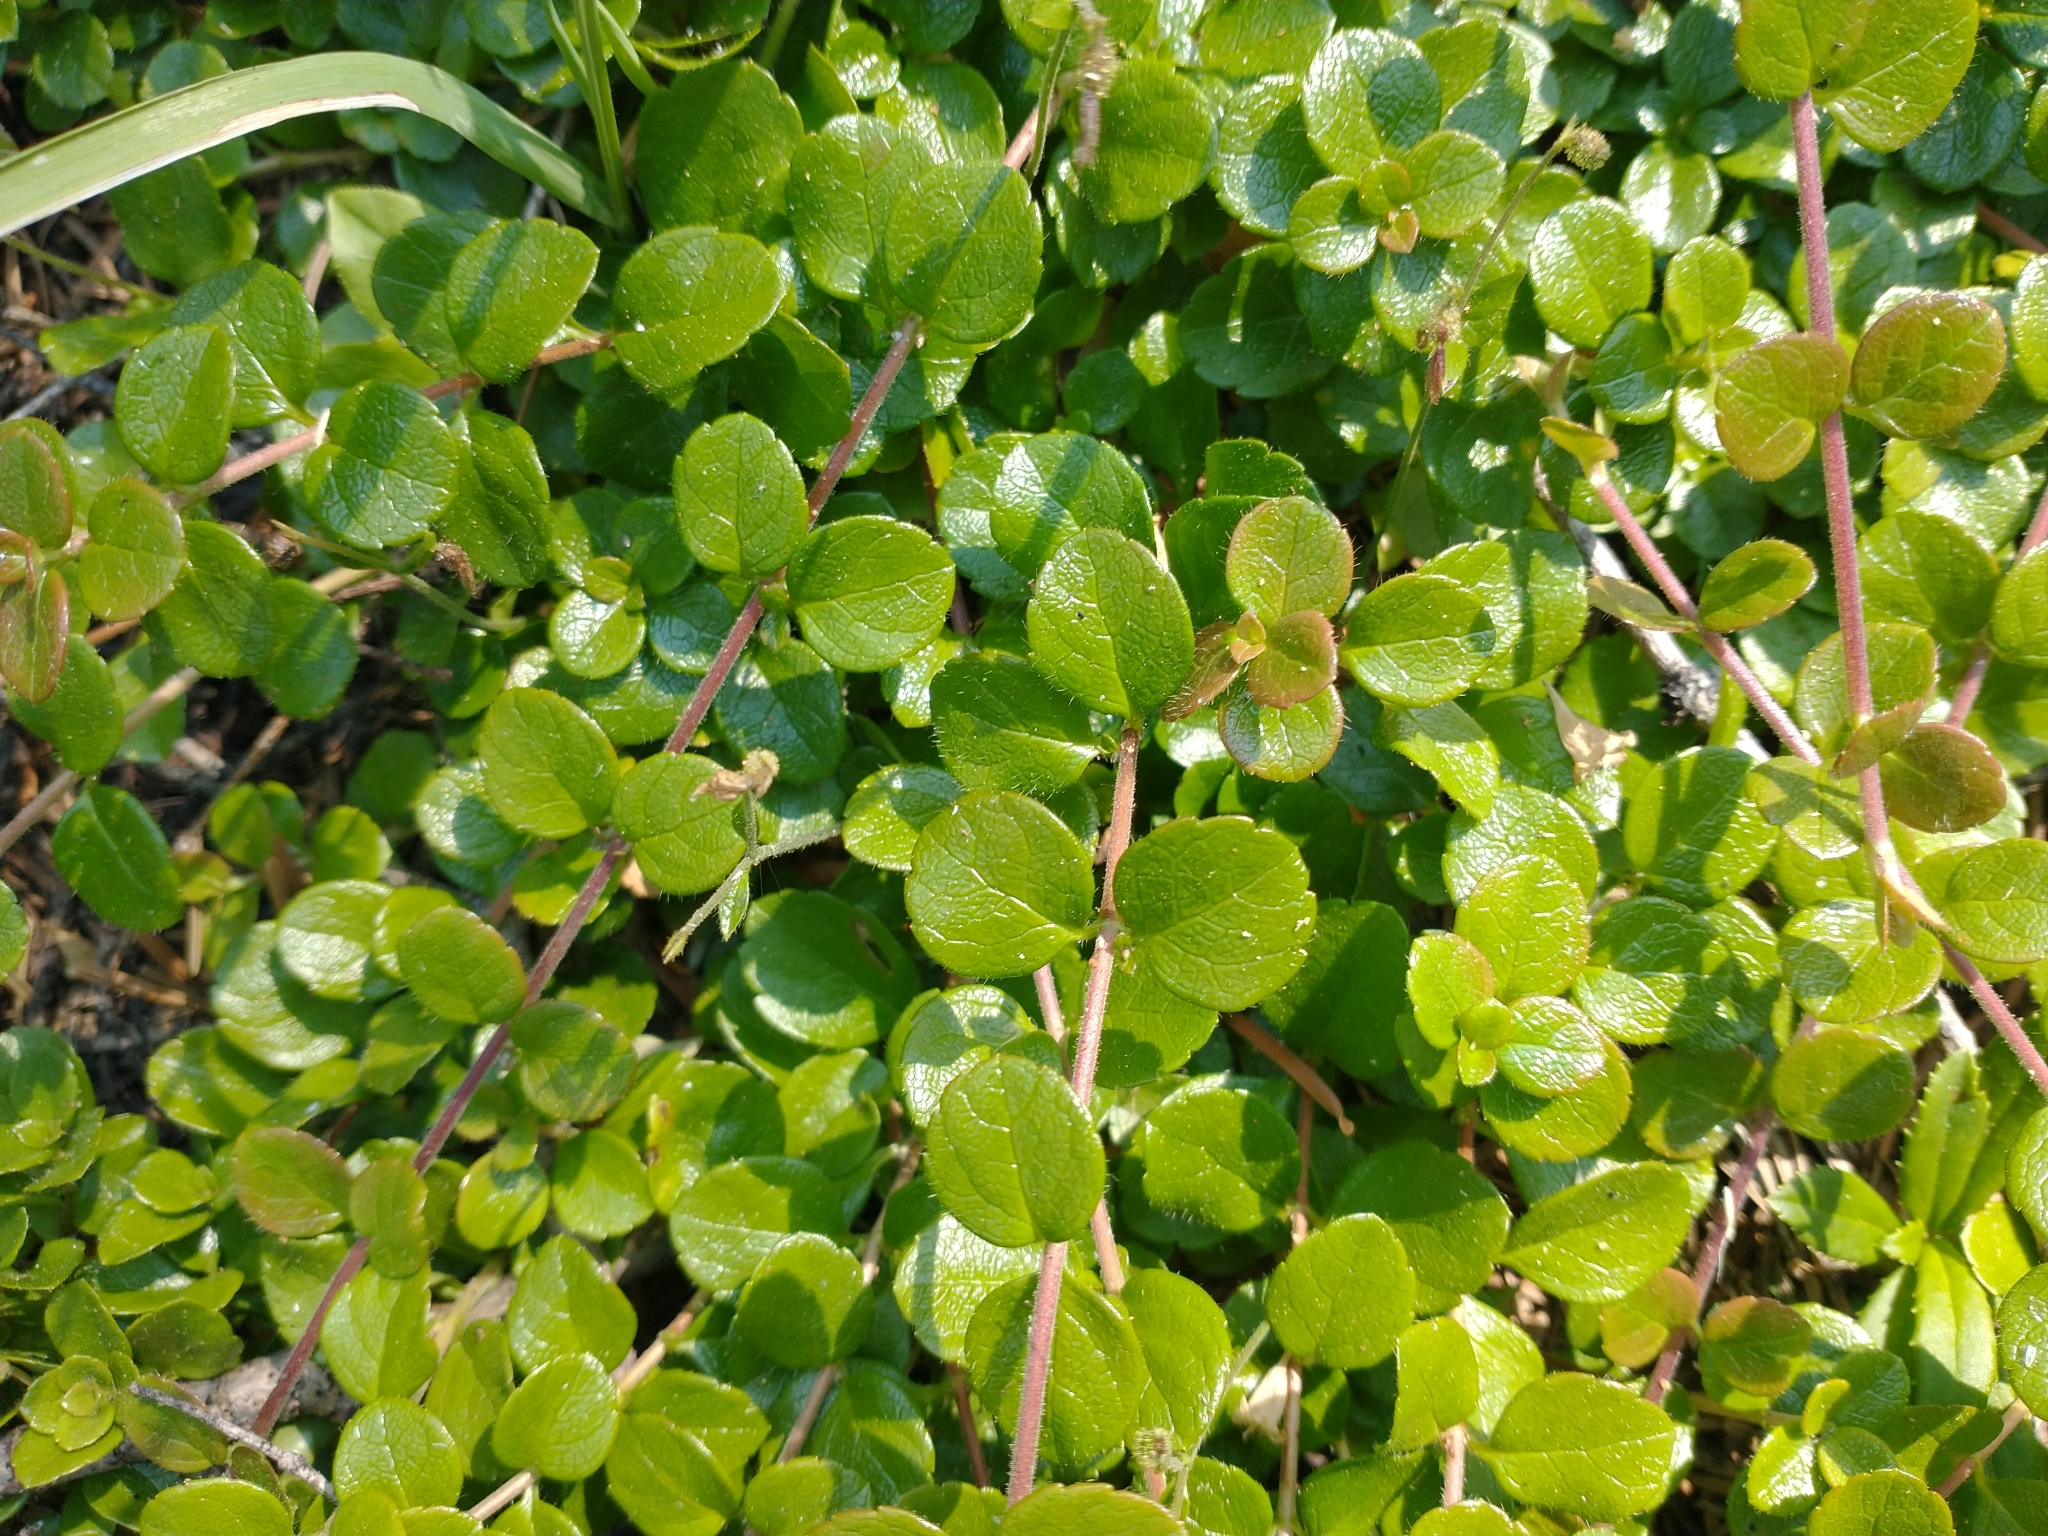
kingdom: Plantae
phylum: Tracheophyta
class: Magnoliopsida
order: Dipsacales
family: Caprifoliaceae
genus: Linnaea
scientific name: Linnaea borealis
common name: Twinflower
